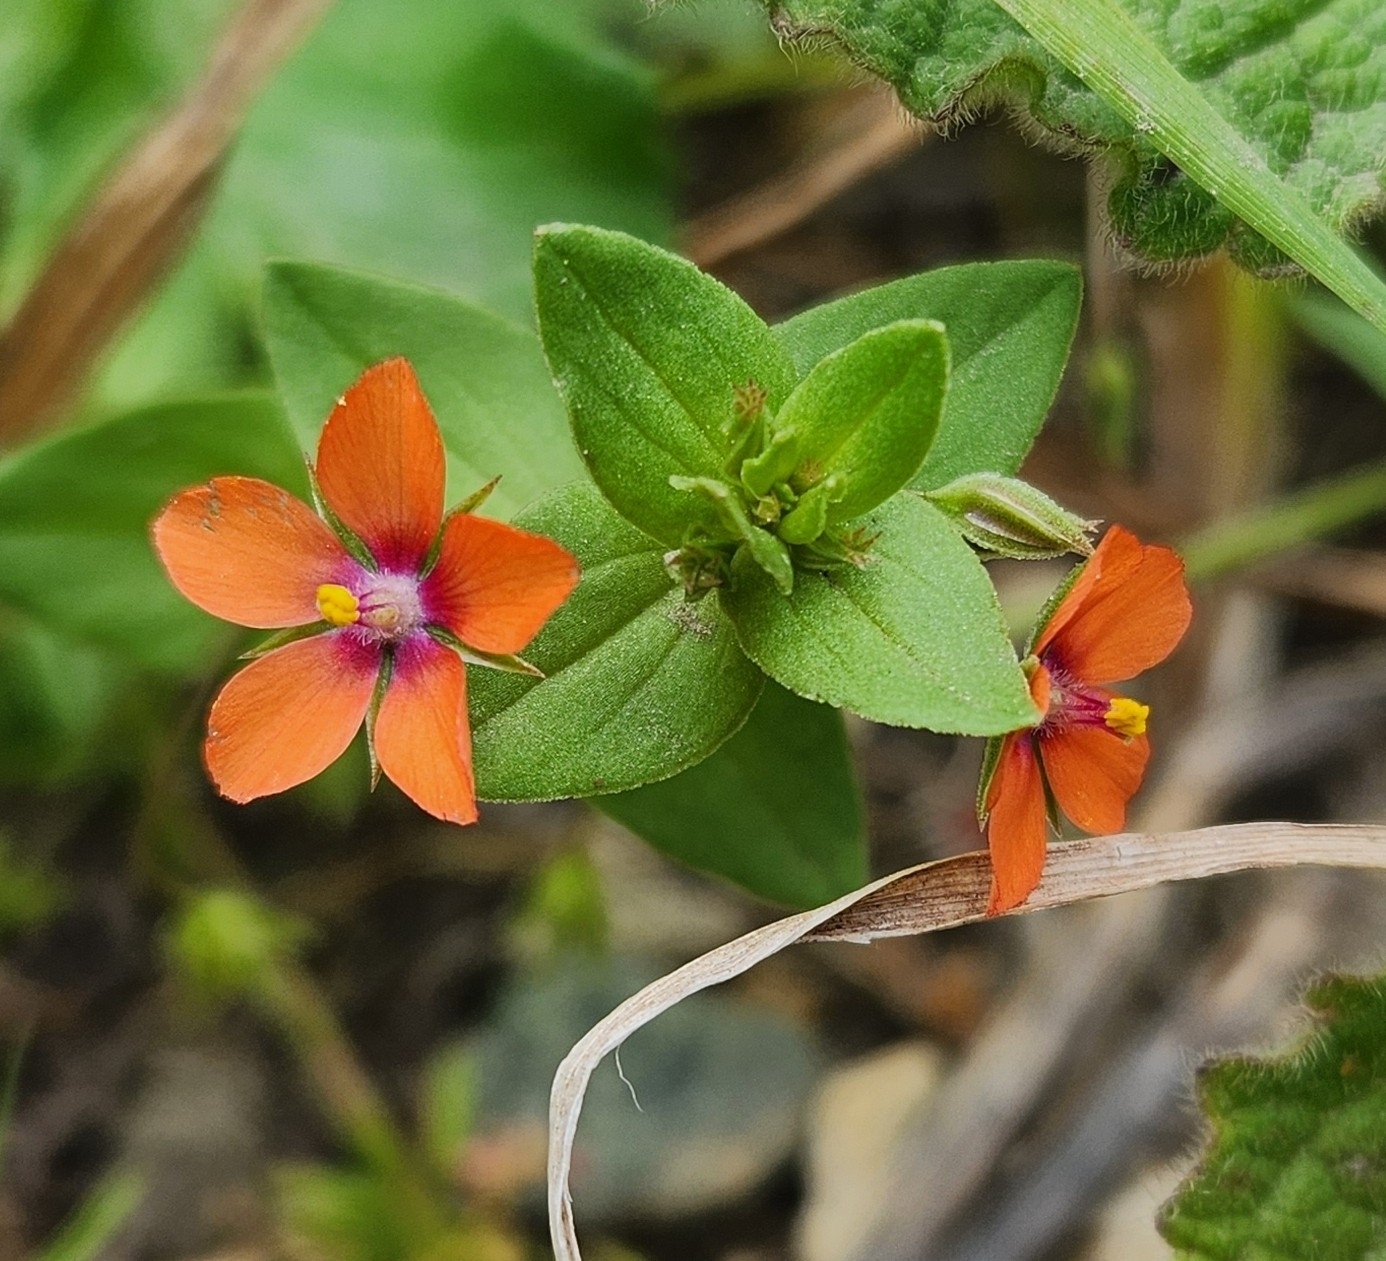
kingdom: Plantae
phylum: Tracheophyta
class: Magnoliopsida
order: Ericales
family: Primulaceae
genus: Lysimachia
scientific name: Lysimachia arvensis
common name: Scarlet pimpernel
